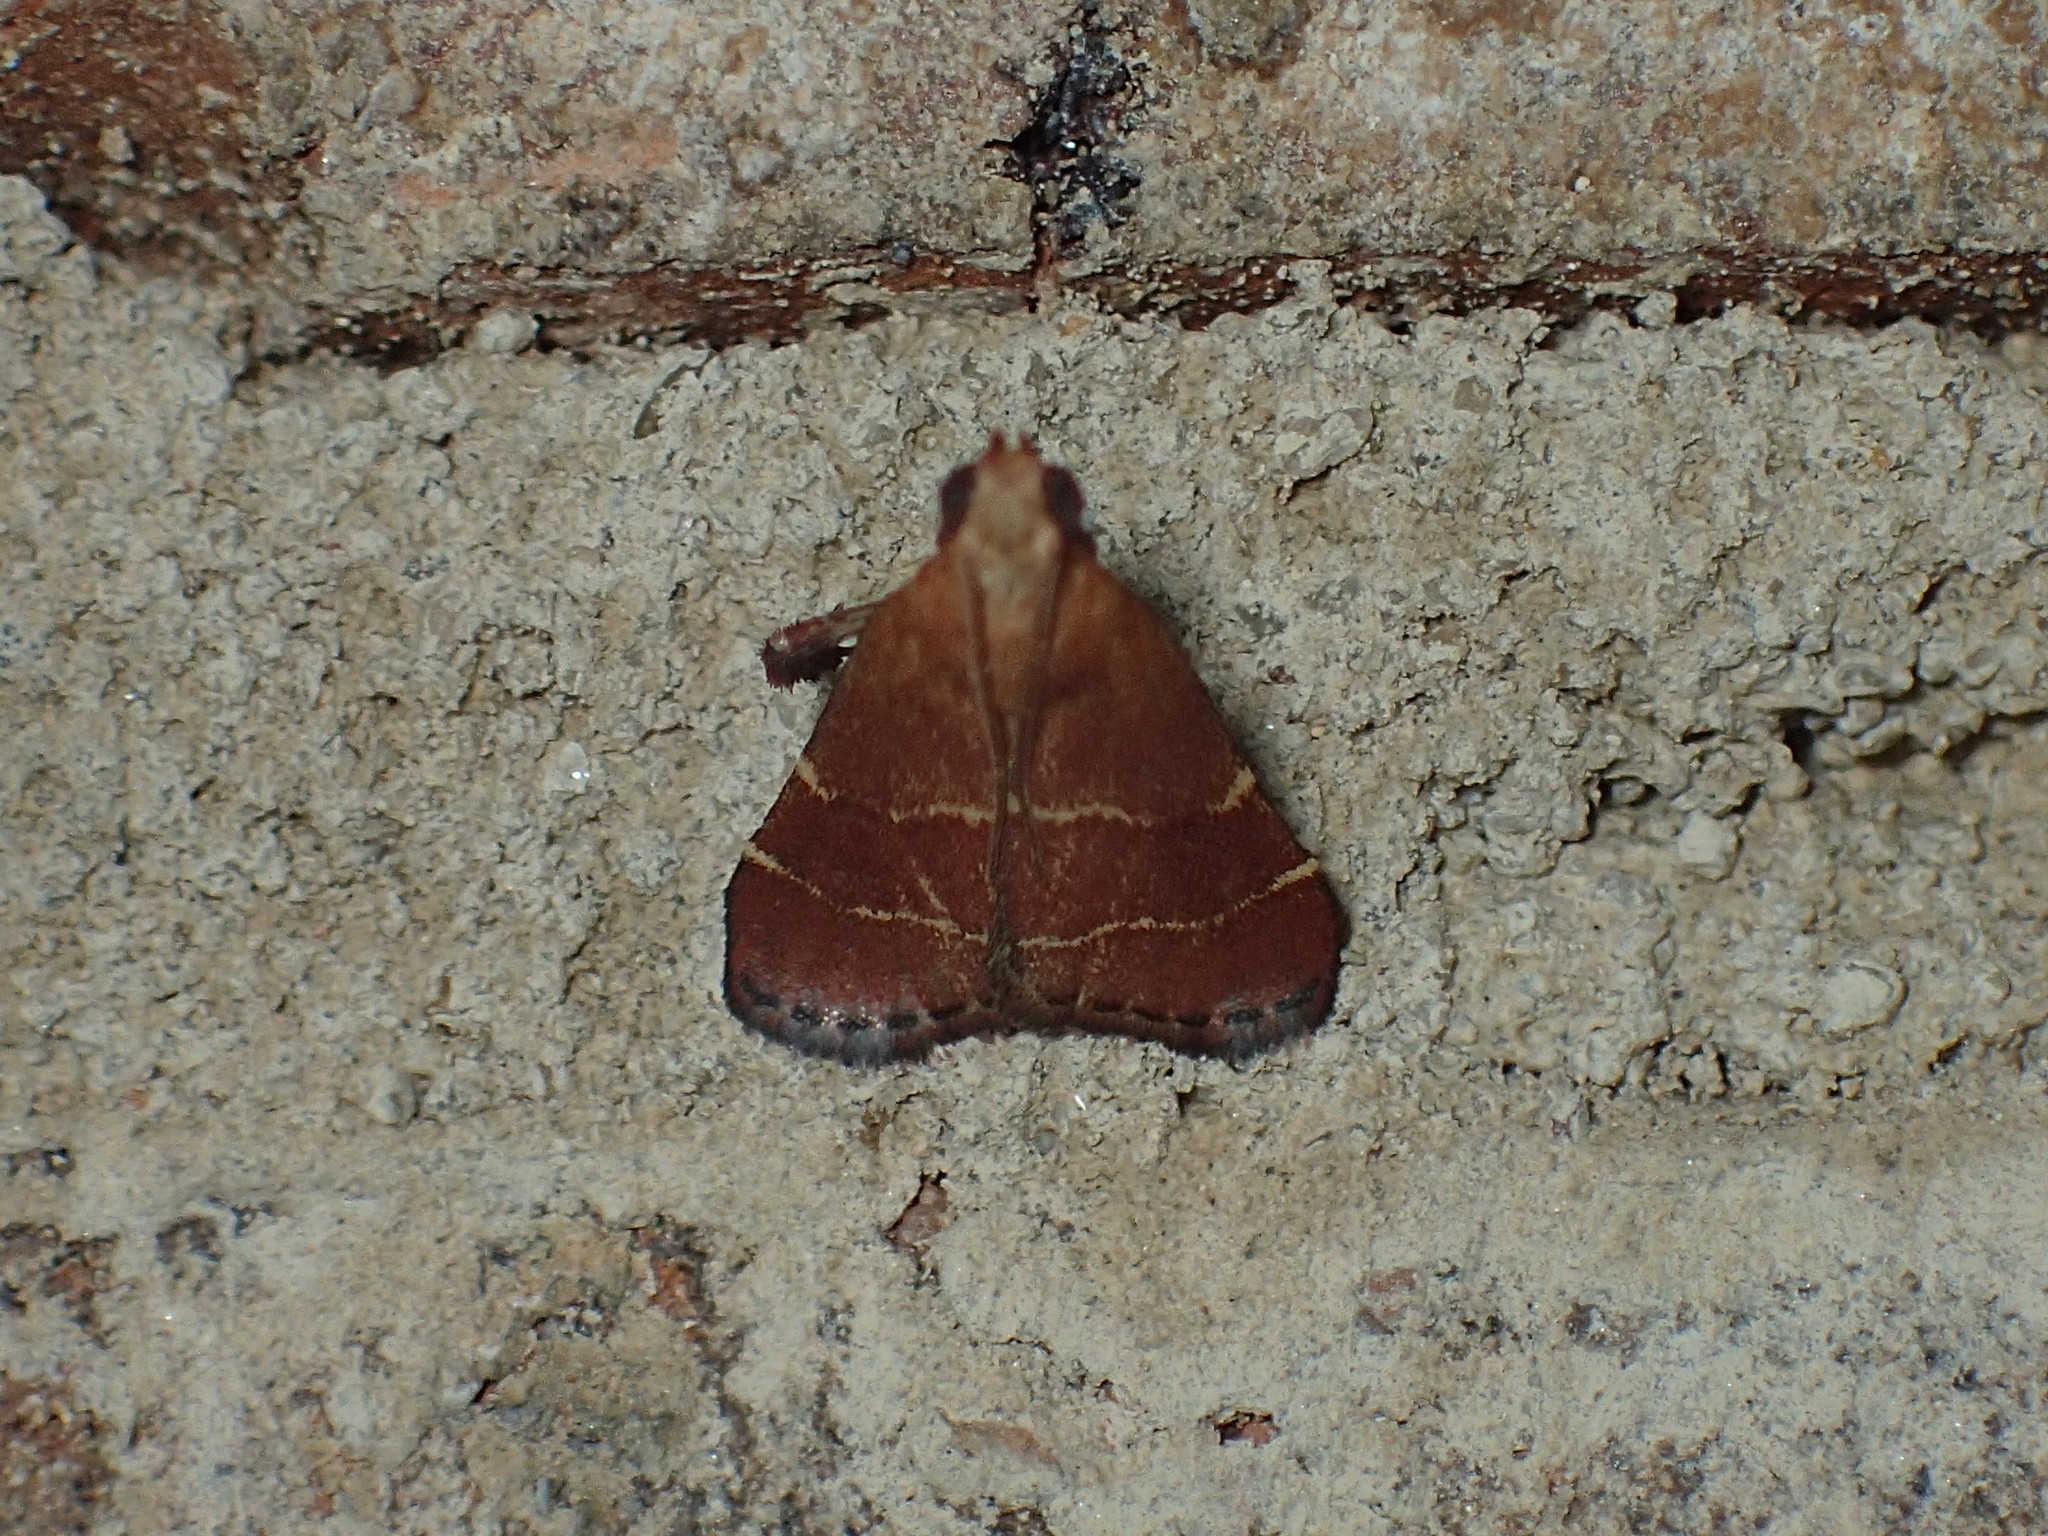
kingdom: Animalia
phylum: Arthropoda
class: Insecta
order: Lepidoptera
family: Pyralidae
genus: Arta
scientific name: Arta statalis
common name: Posturing arta moth
